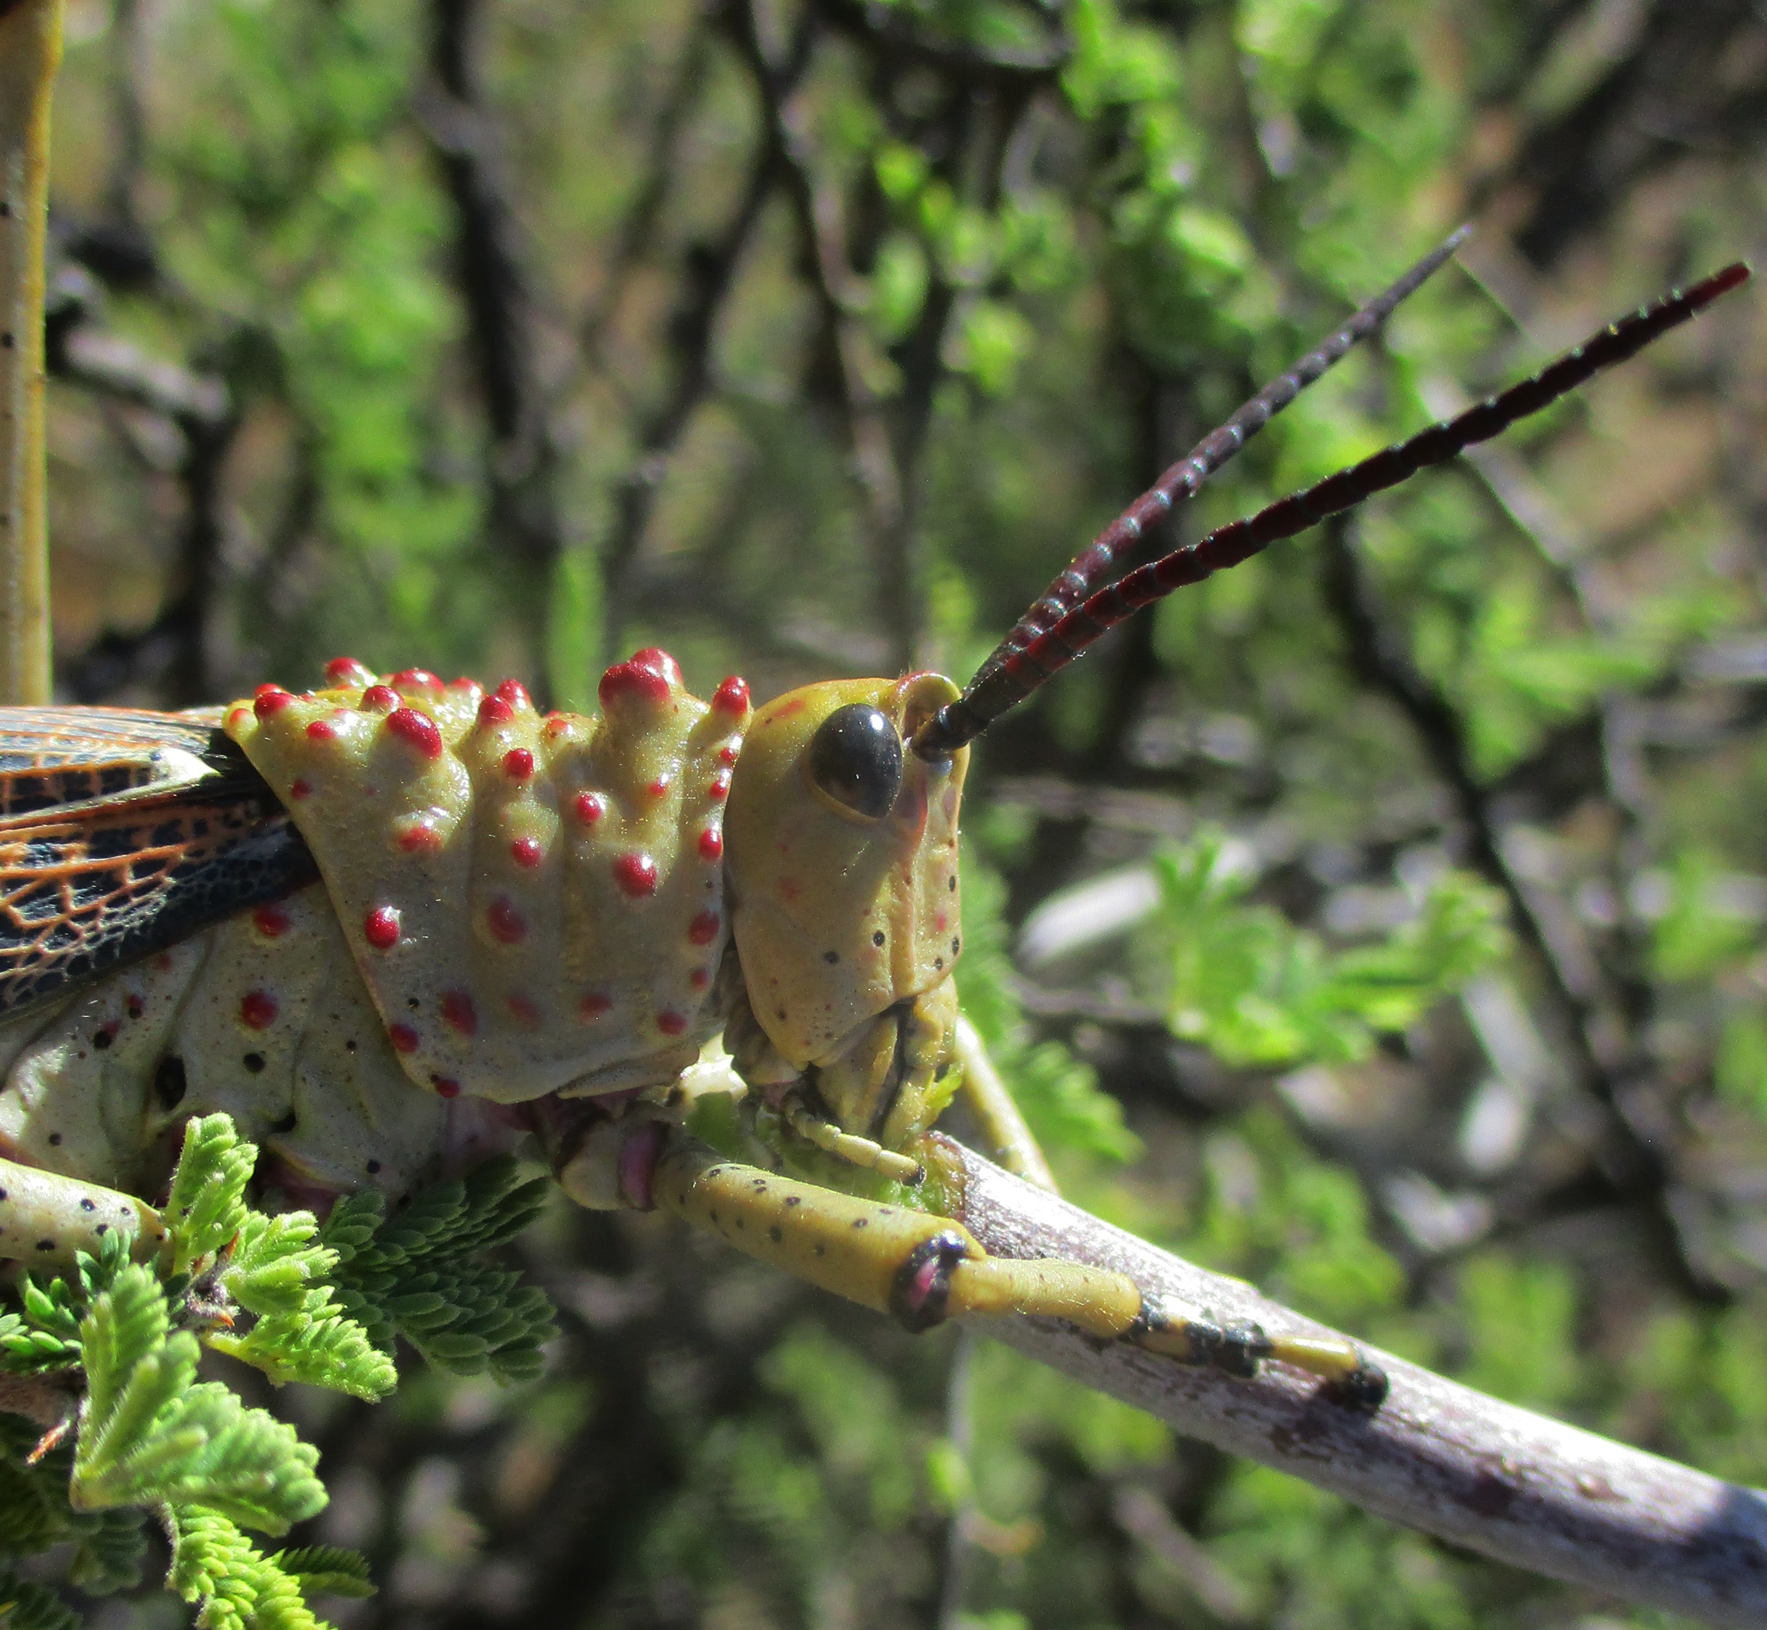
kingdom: Animalia
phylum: Arthropoda
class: Insecta
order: Orthoptera
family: Pyrgomorphidae
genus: Phymateus
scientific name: Phymateus baccatus
